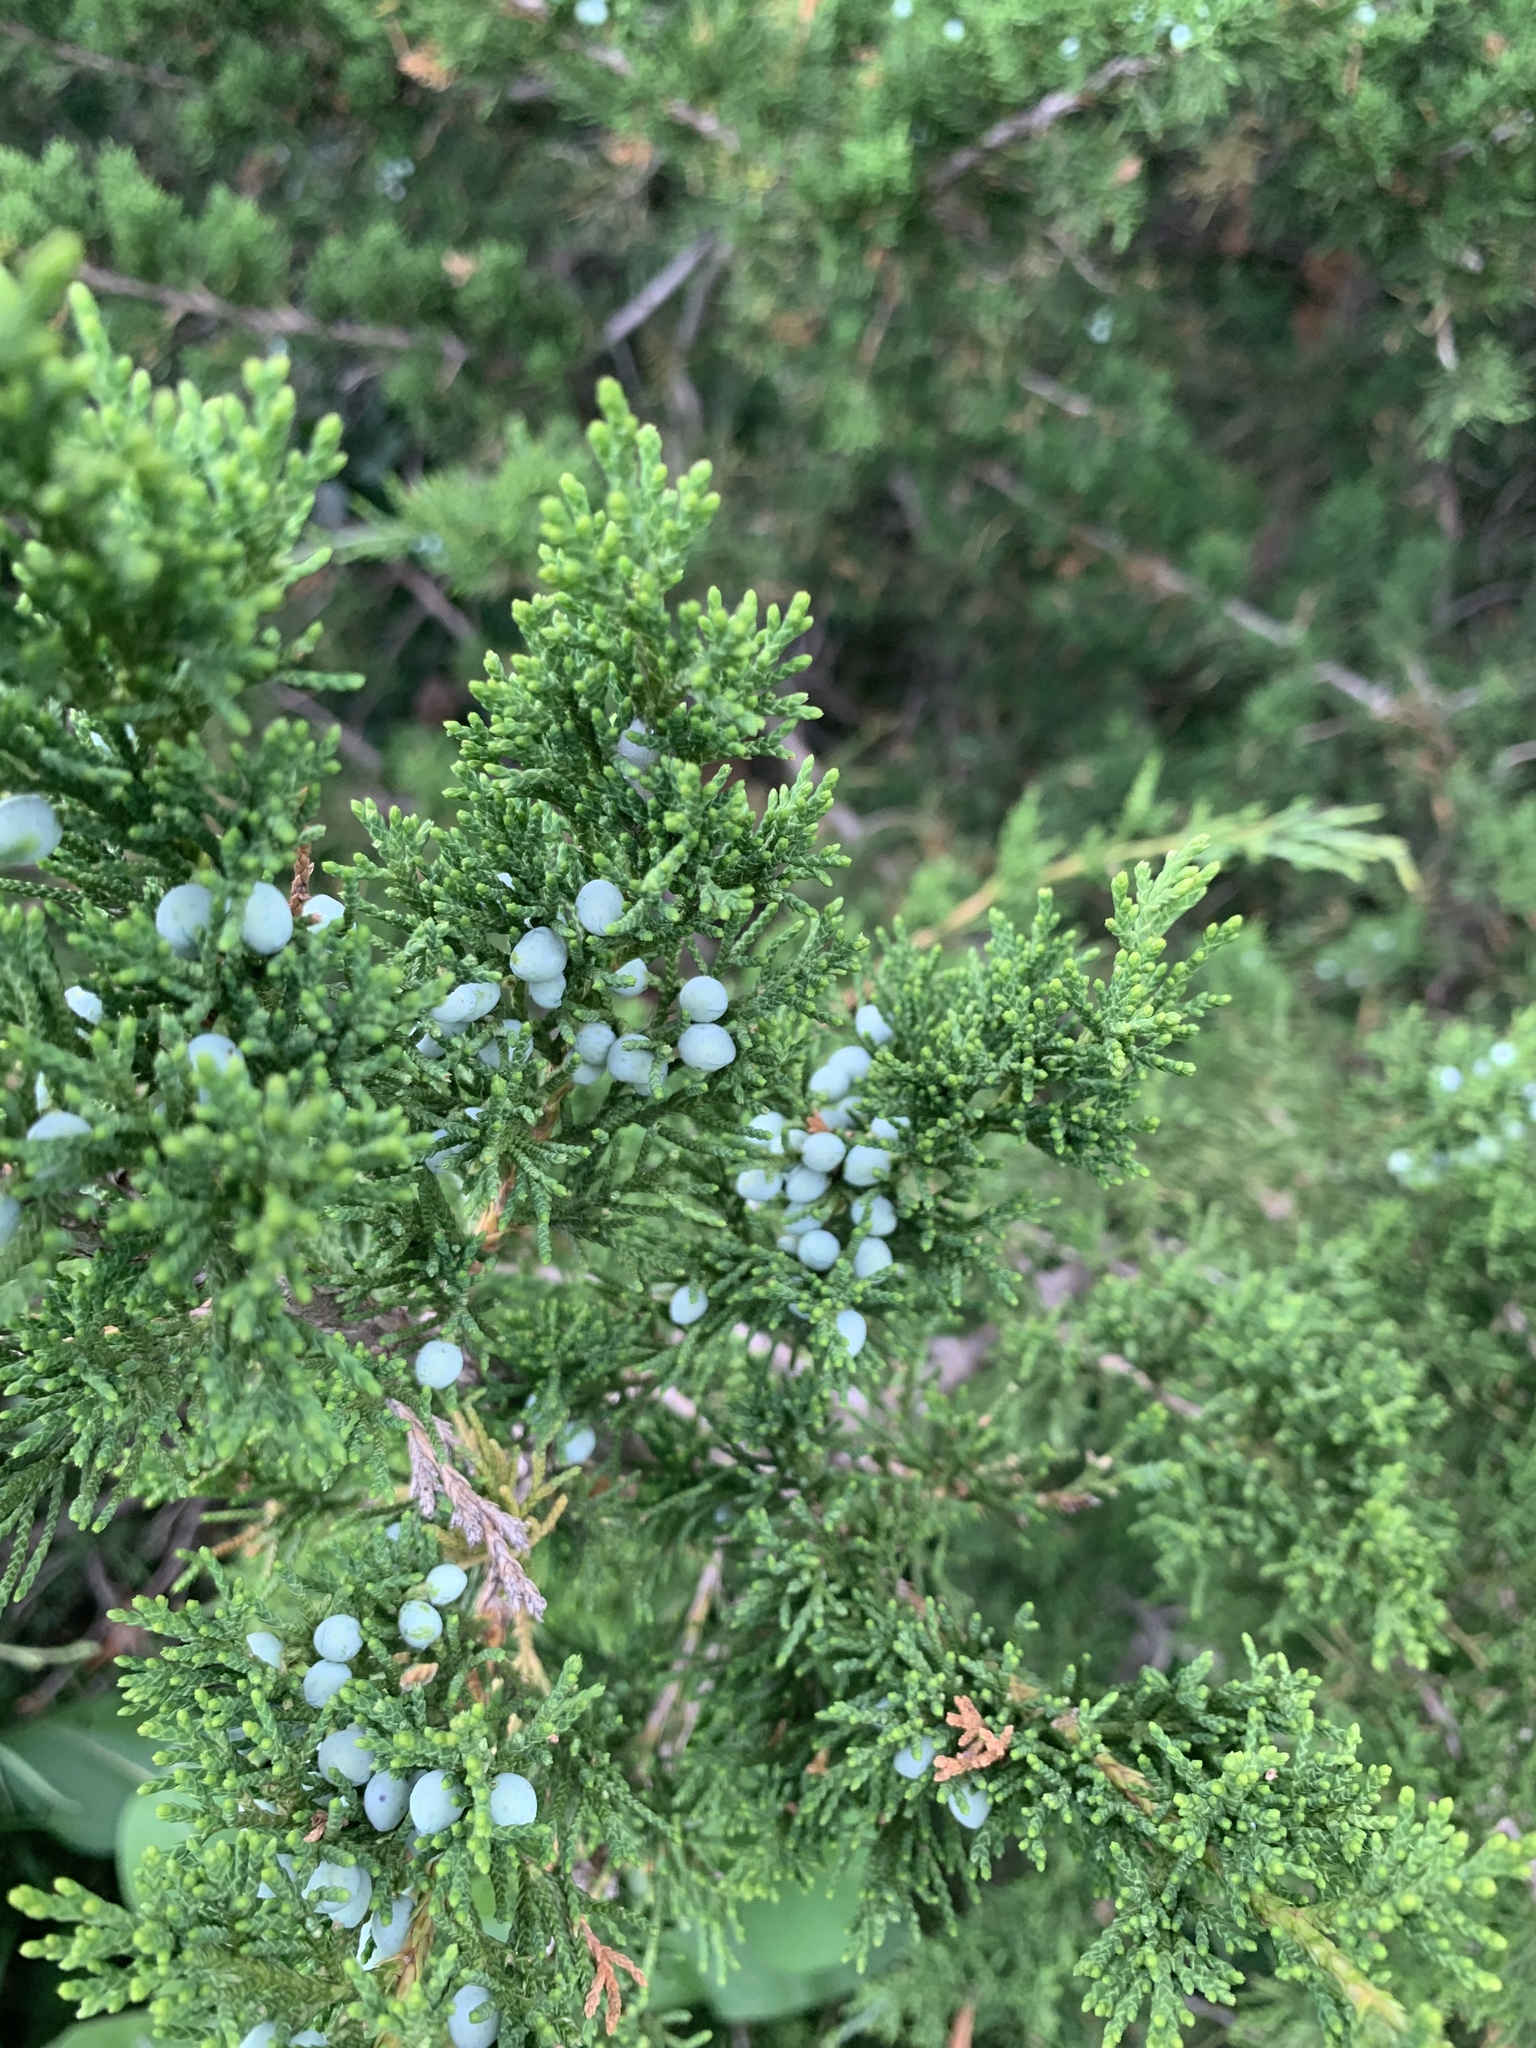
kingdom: Plantae
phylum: Tracheophyta
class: Pinopsida
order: Pinales
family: Cupressaceae
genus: Juniperus
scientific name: Juniperus virginiana
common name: Red juniper
